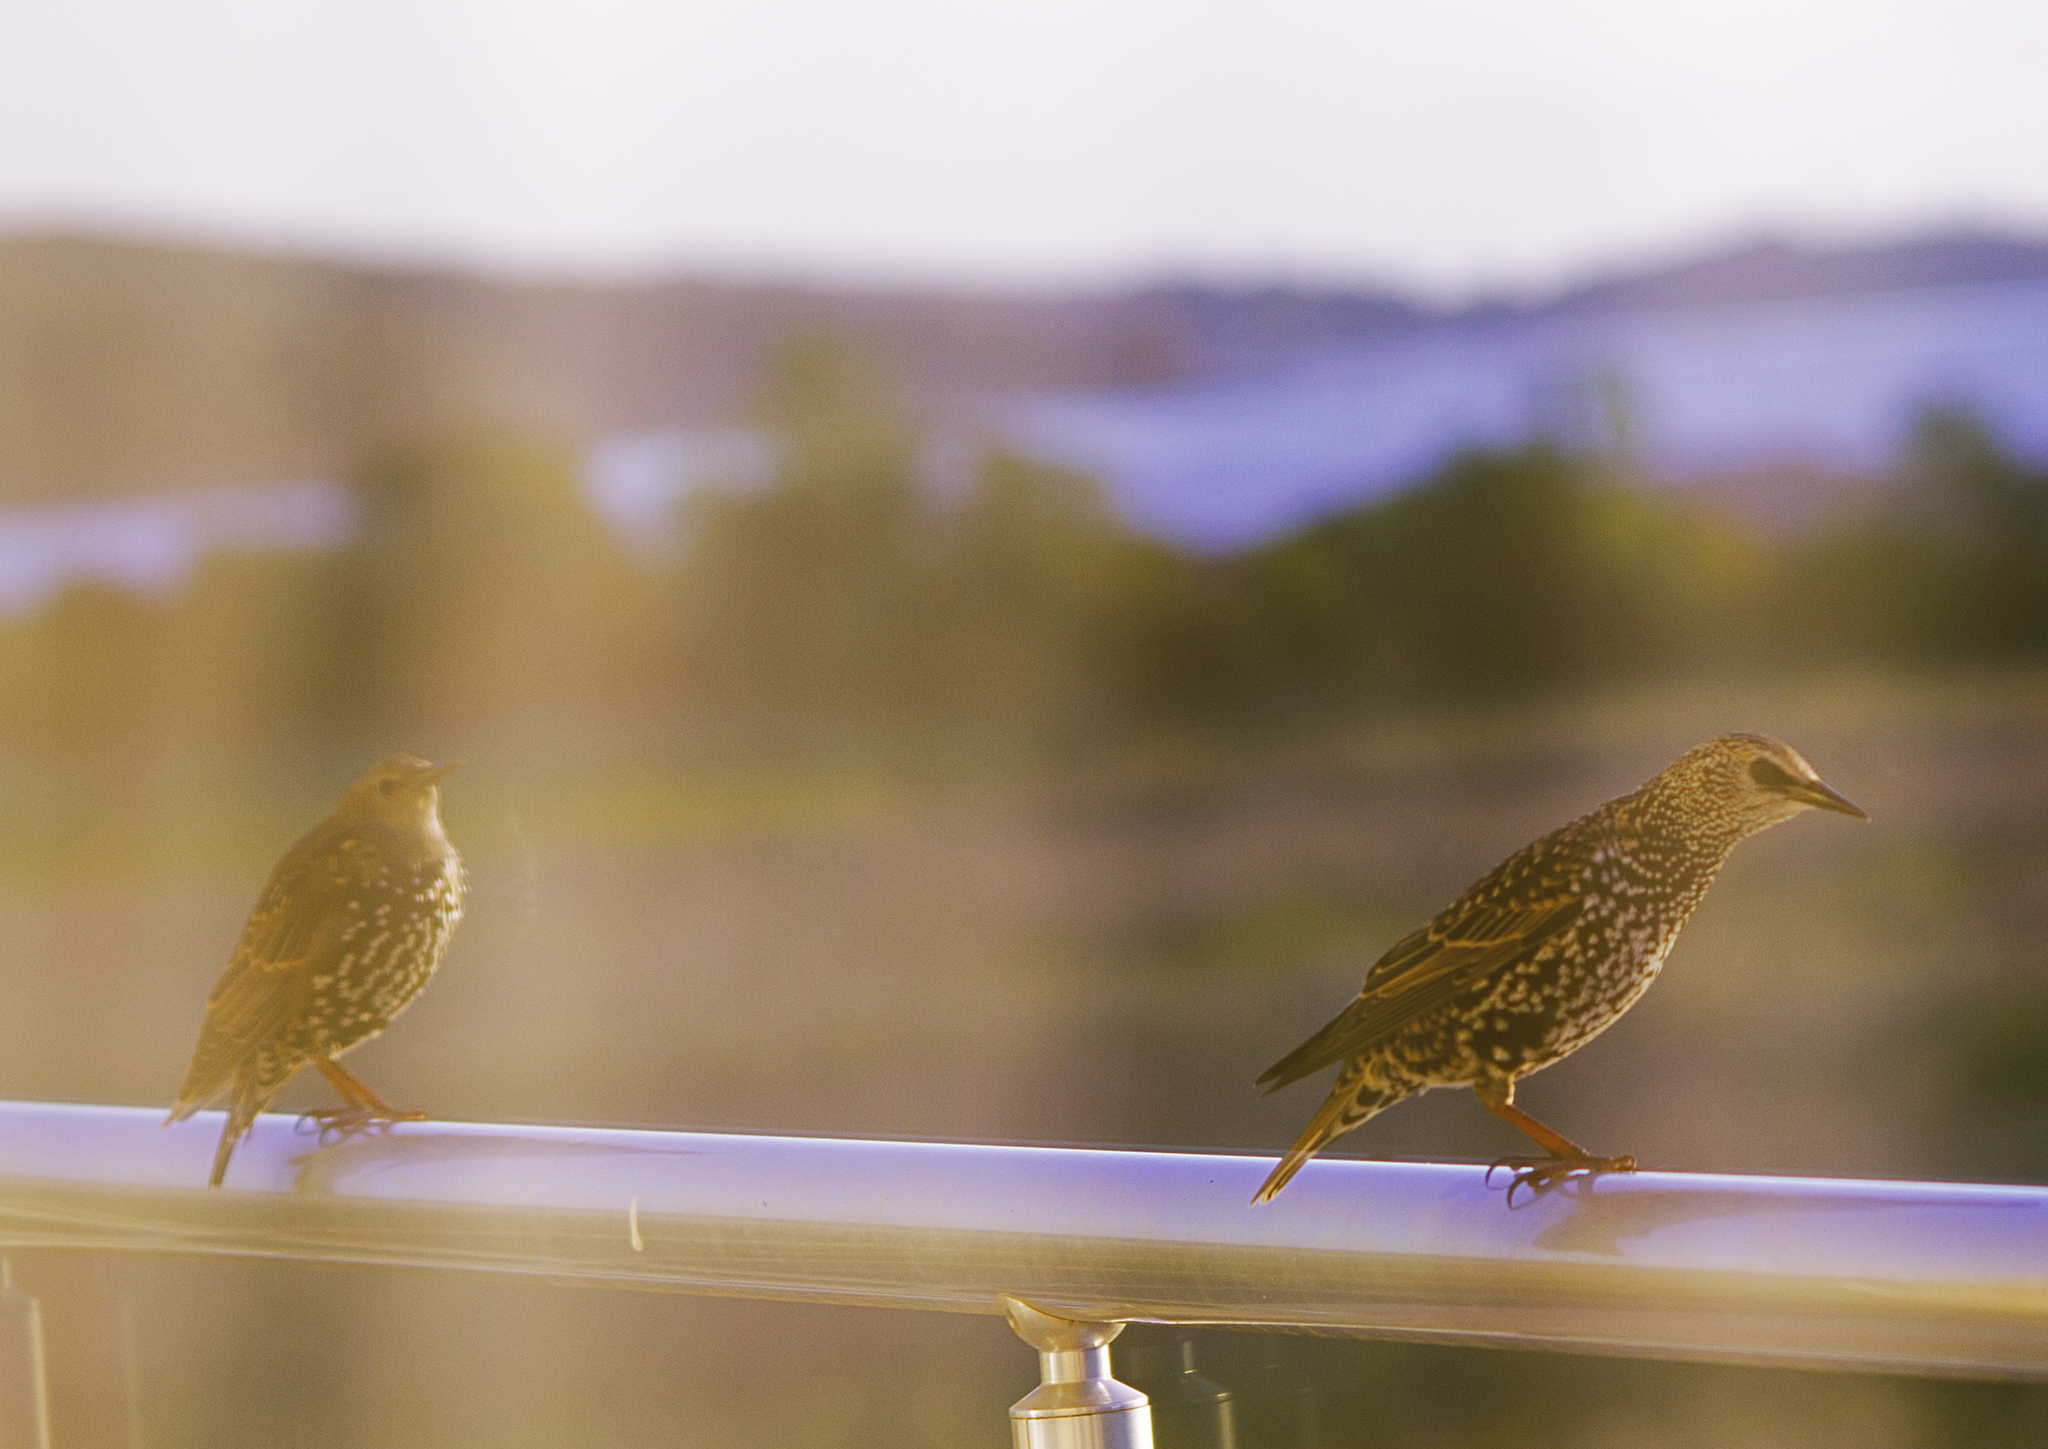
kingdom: Animalia
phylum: Chordata
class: Aves
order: Passeriformes
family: Sturnidae
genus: Sturnus
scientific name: Sturnus vulgaris
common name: Common starling
